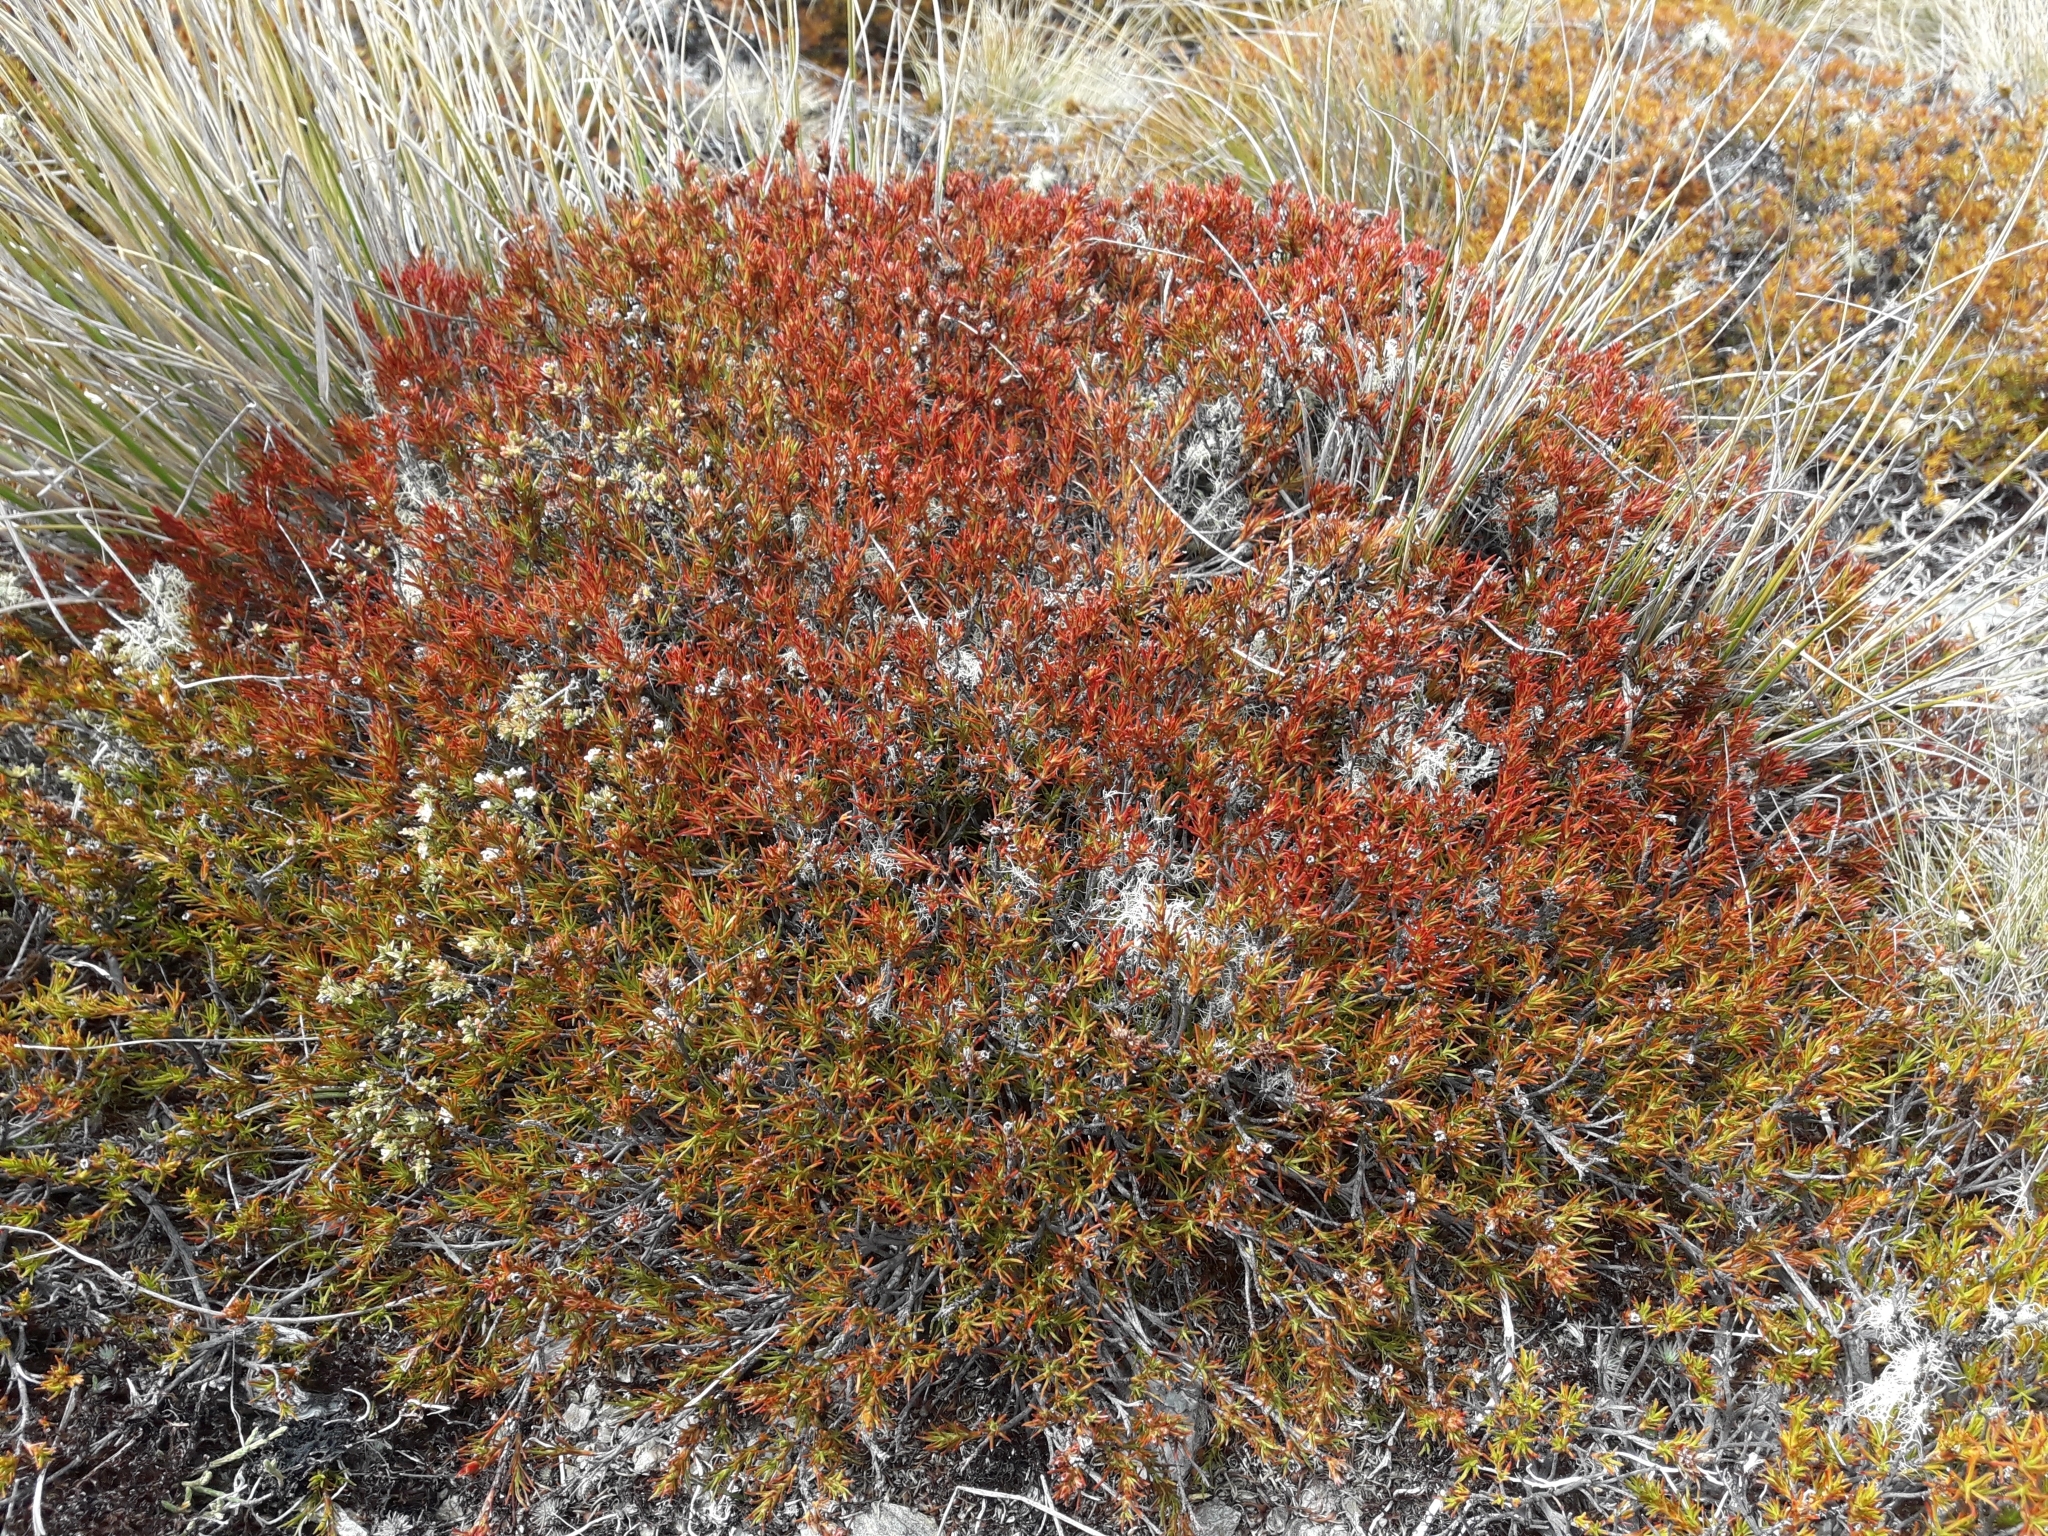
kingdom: Plantae
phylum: Tracheophyta
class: Magnoliopsida
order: Ericales
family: Ericaceae
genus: Dracophyllum
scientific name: Dracophyllum rosmarinifolium
